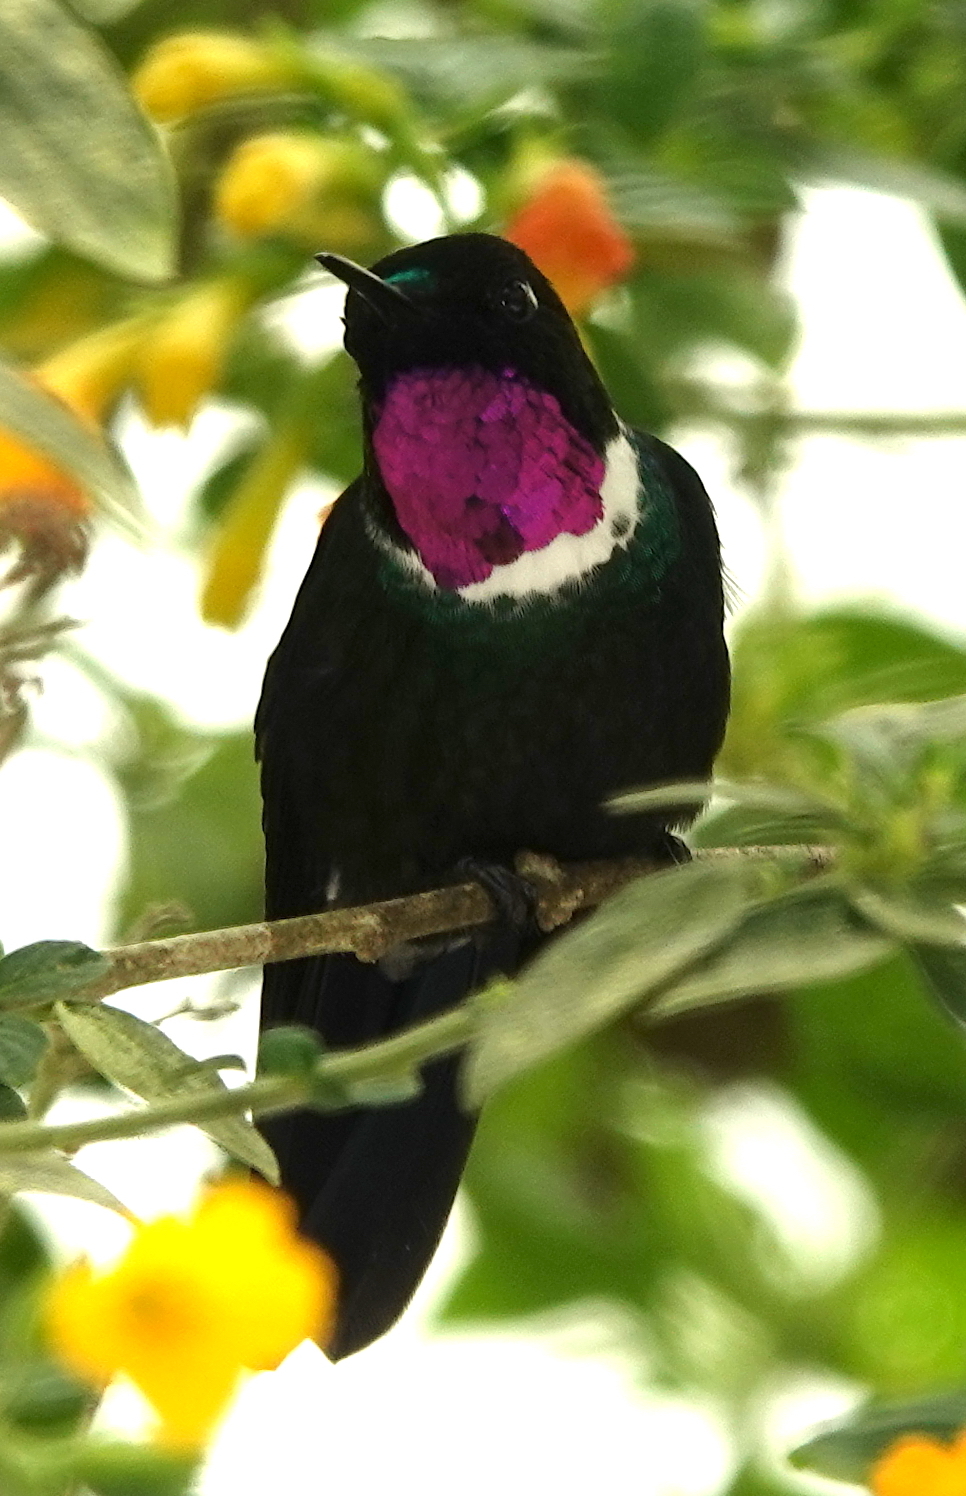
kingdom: Animalia
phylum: Chordata
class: Aves
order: Apodiformes
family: Trochilidae
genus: Heliangelus
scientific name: Heliangelus strophianus
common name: Gorgeted sunangel
